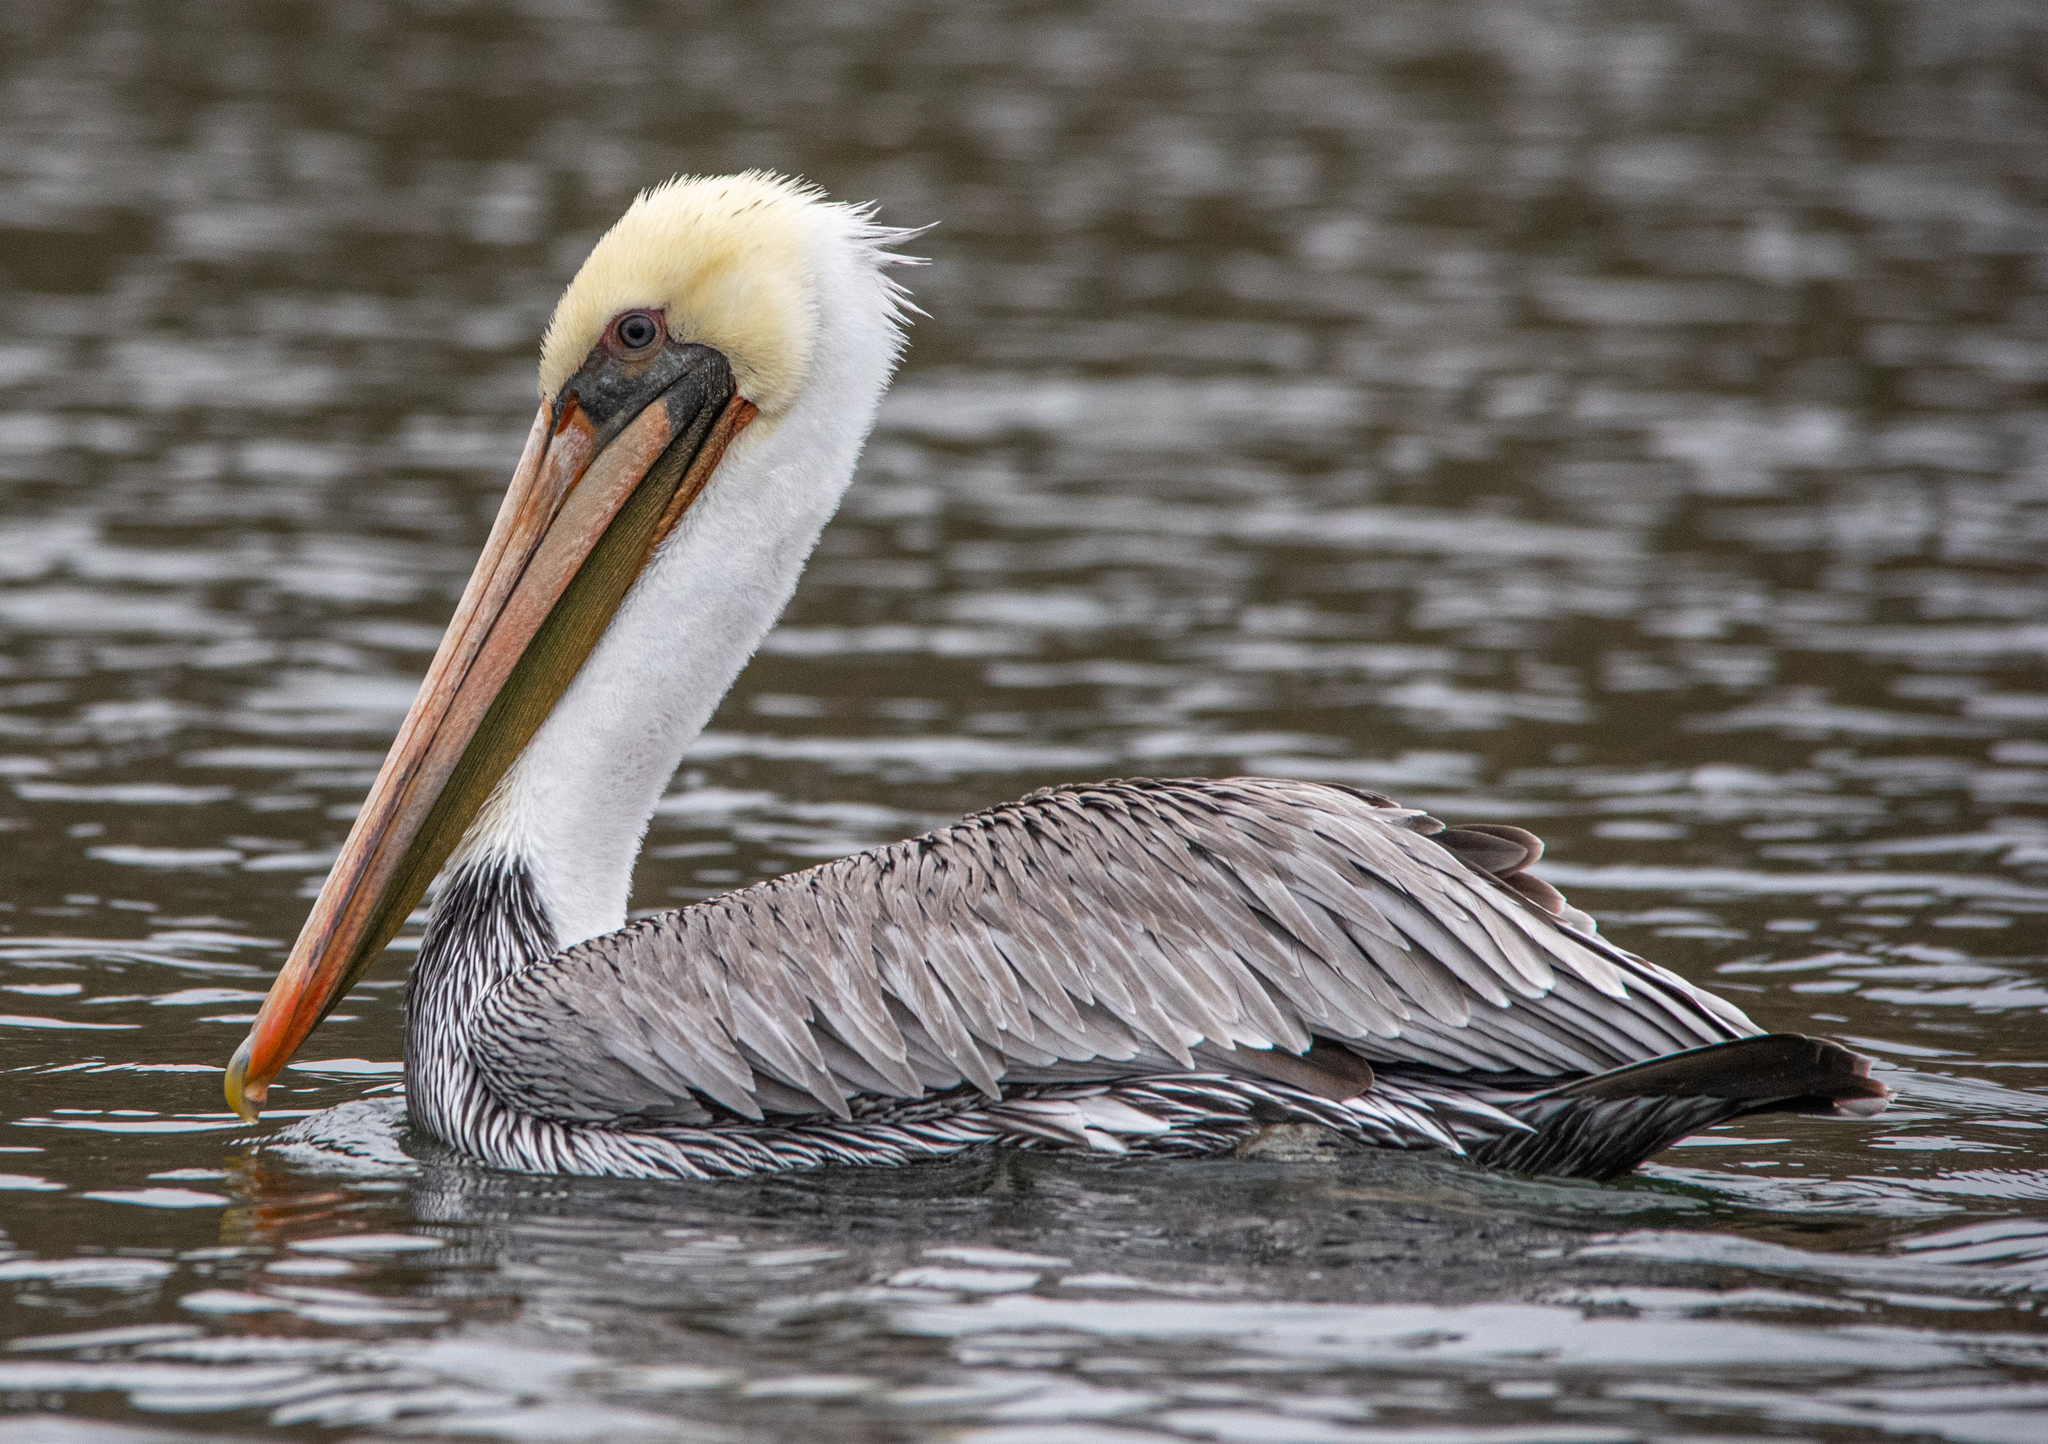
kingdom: Animalia
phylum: Chordata
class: Aves
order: Pelecaniformes
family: Pelecanidae
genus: Pelecanus
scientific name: Pelecanus occidentalis
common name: Brown pelican
